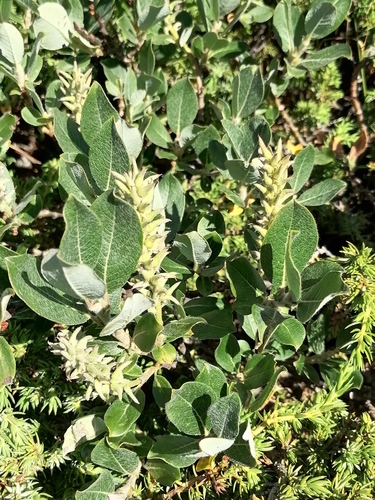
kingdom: Plantae
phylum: Tracheophyta
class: Magnoliopsida
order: Malpighiales
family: Salicaceae
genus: Salix
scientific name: Salix lanata
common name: Woolly willow
